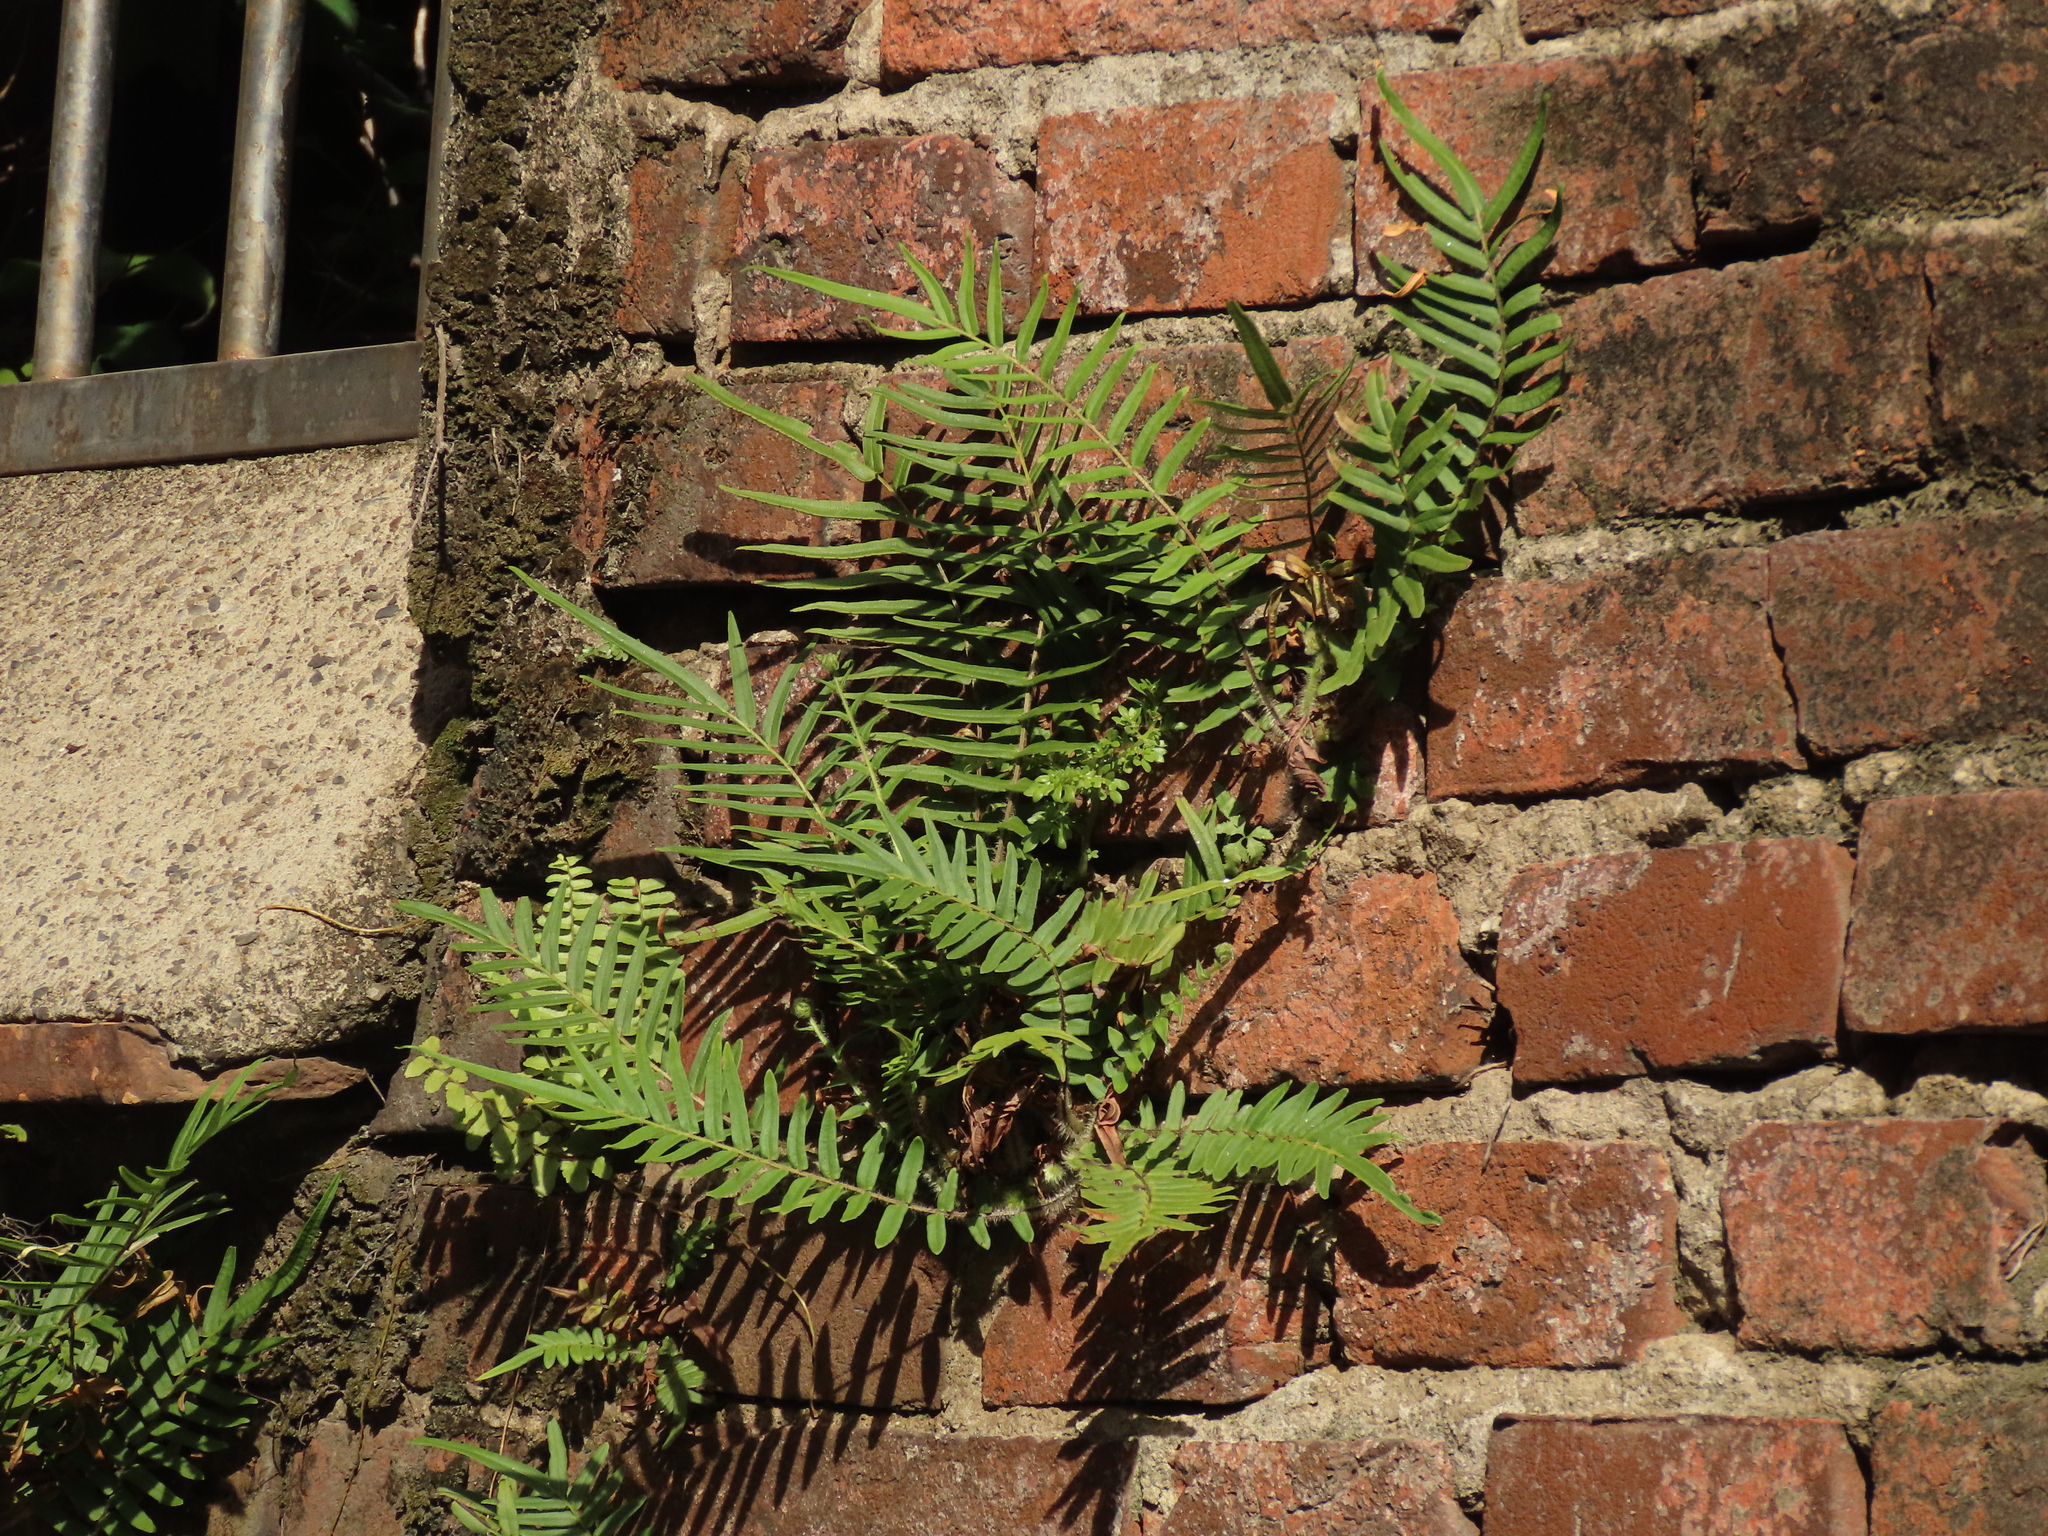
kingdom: Plantae
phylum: Tracheophyta
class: Polypodiopsida
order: Polypodiales
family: Pteridaceae
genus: Pteris
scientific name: Pteris vittata
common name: Ladder brake
